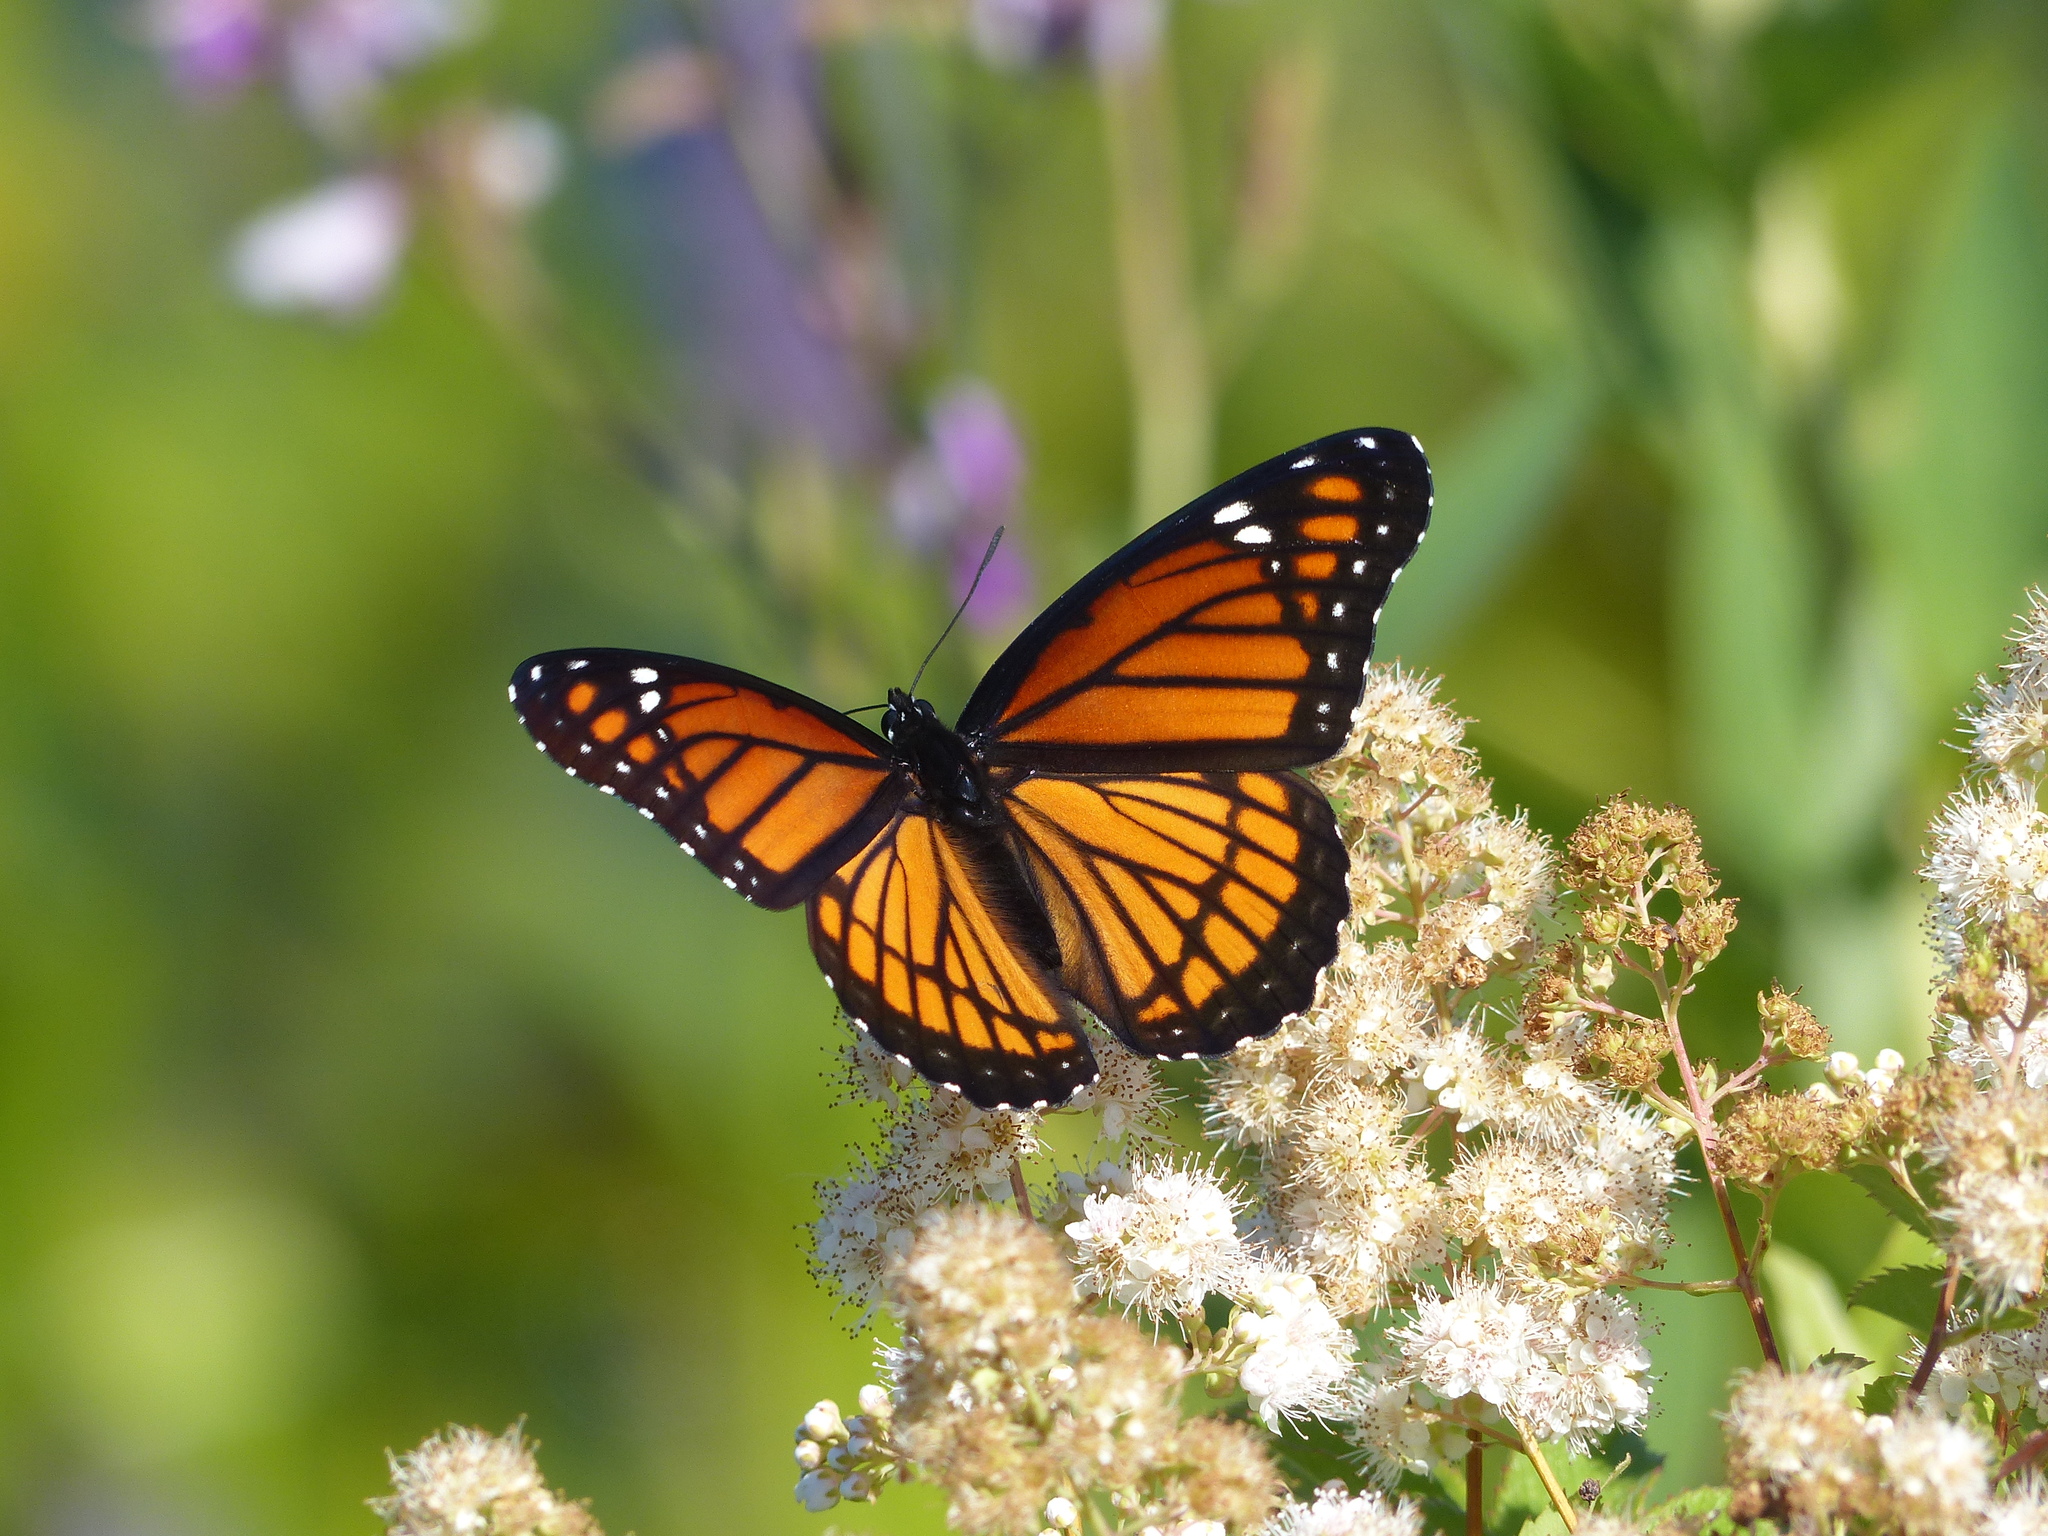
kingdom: Animalia
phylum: Arthropoda
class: Insecta
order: Lepidoptera
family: Nymphalidae
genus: Limenitis
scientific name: Limenitis archippus
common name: Viceroy
